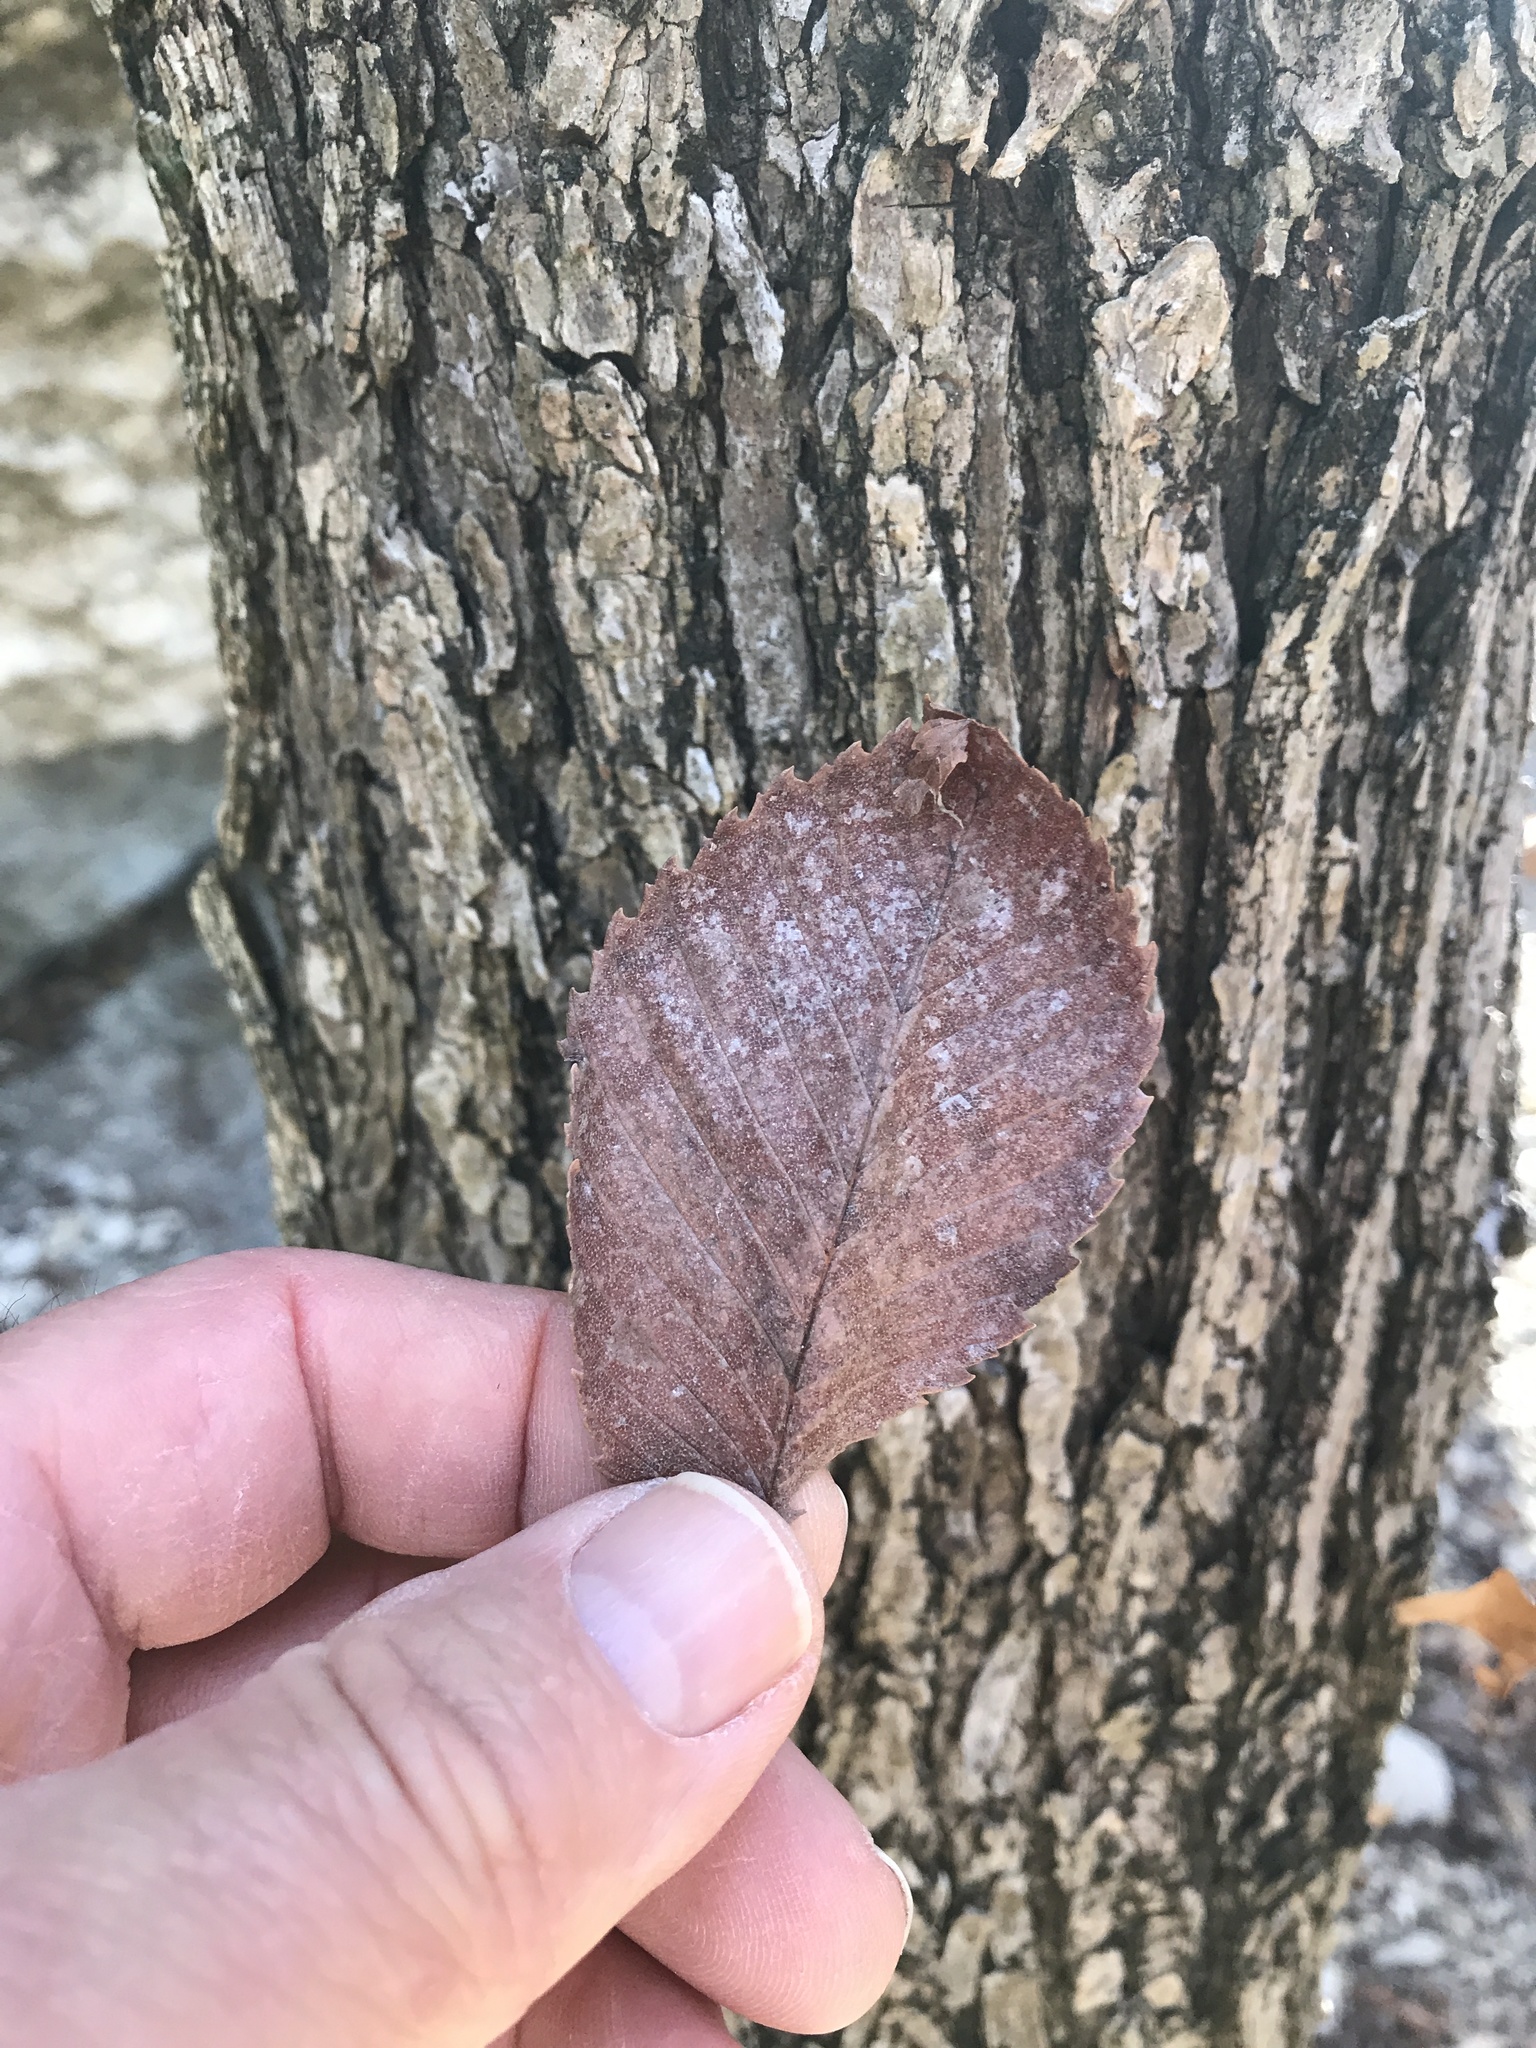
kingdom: Plantae
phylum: Tracheophyta
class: Magnoliopsida
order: Rosales
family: Ulmaceae
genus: Ulmus
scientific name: Ulmus americana
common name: American elm
